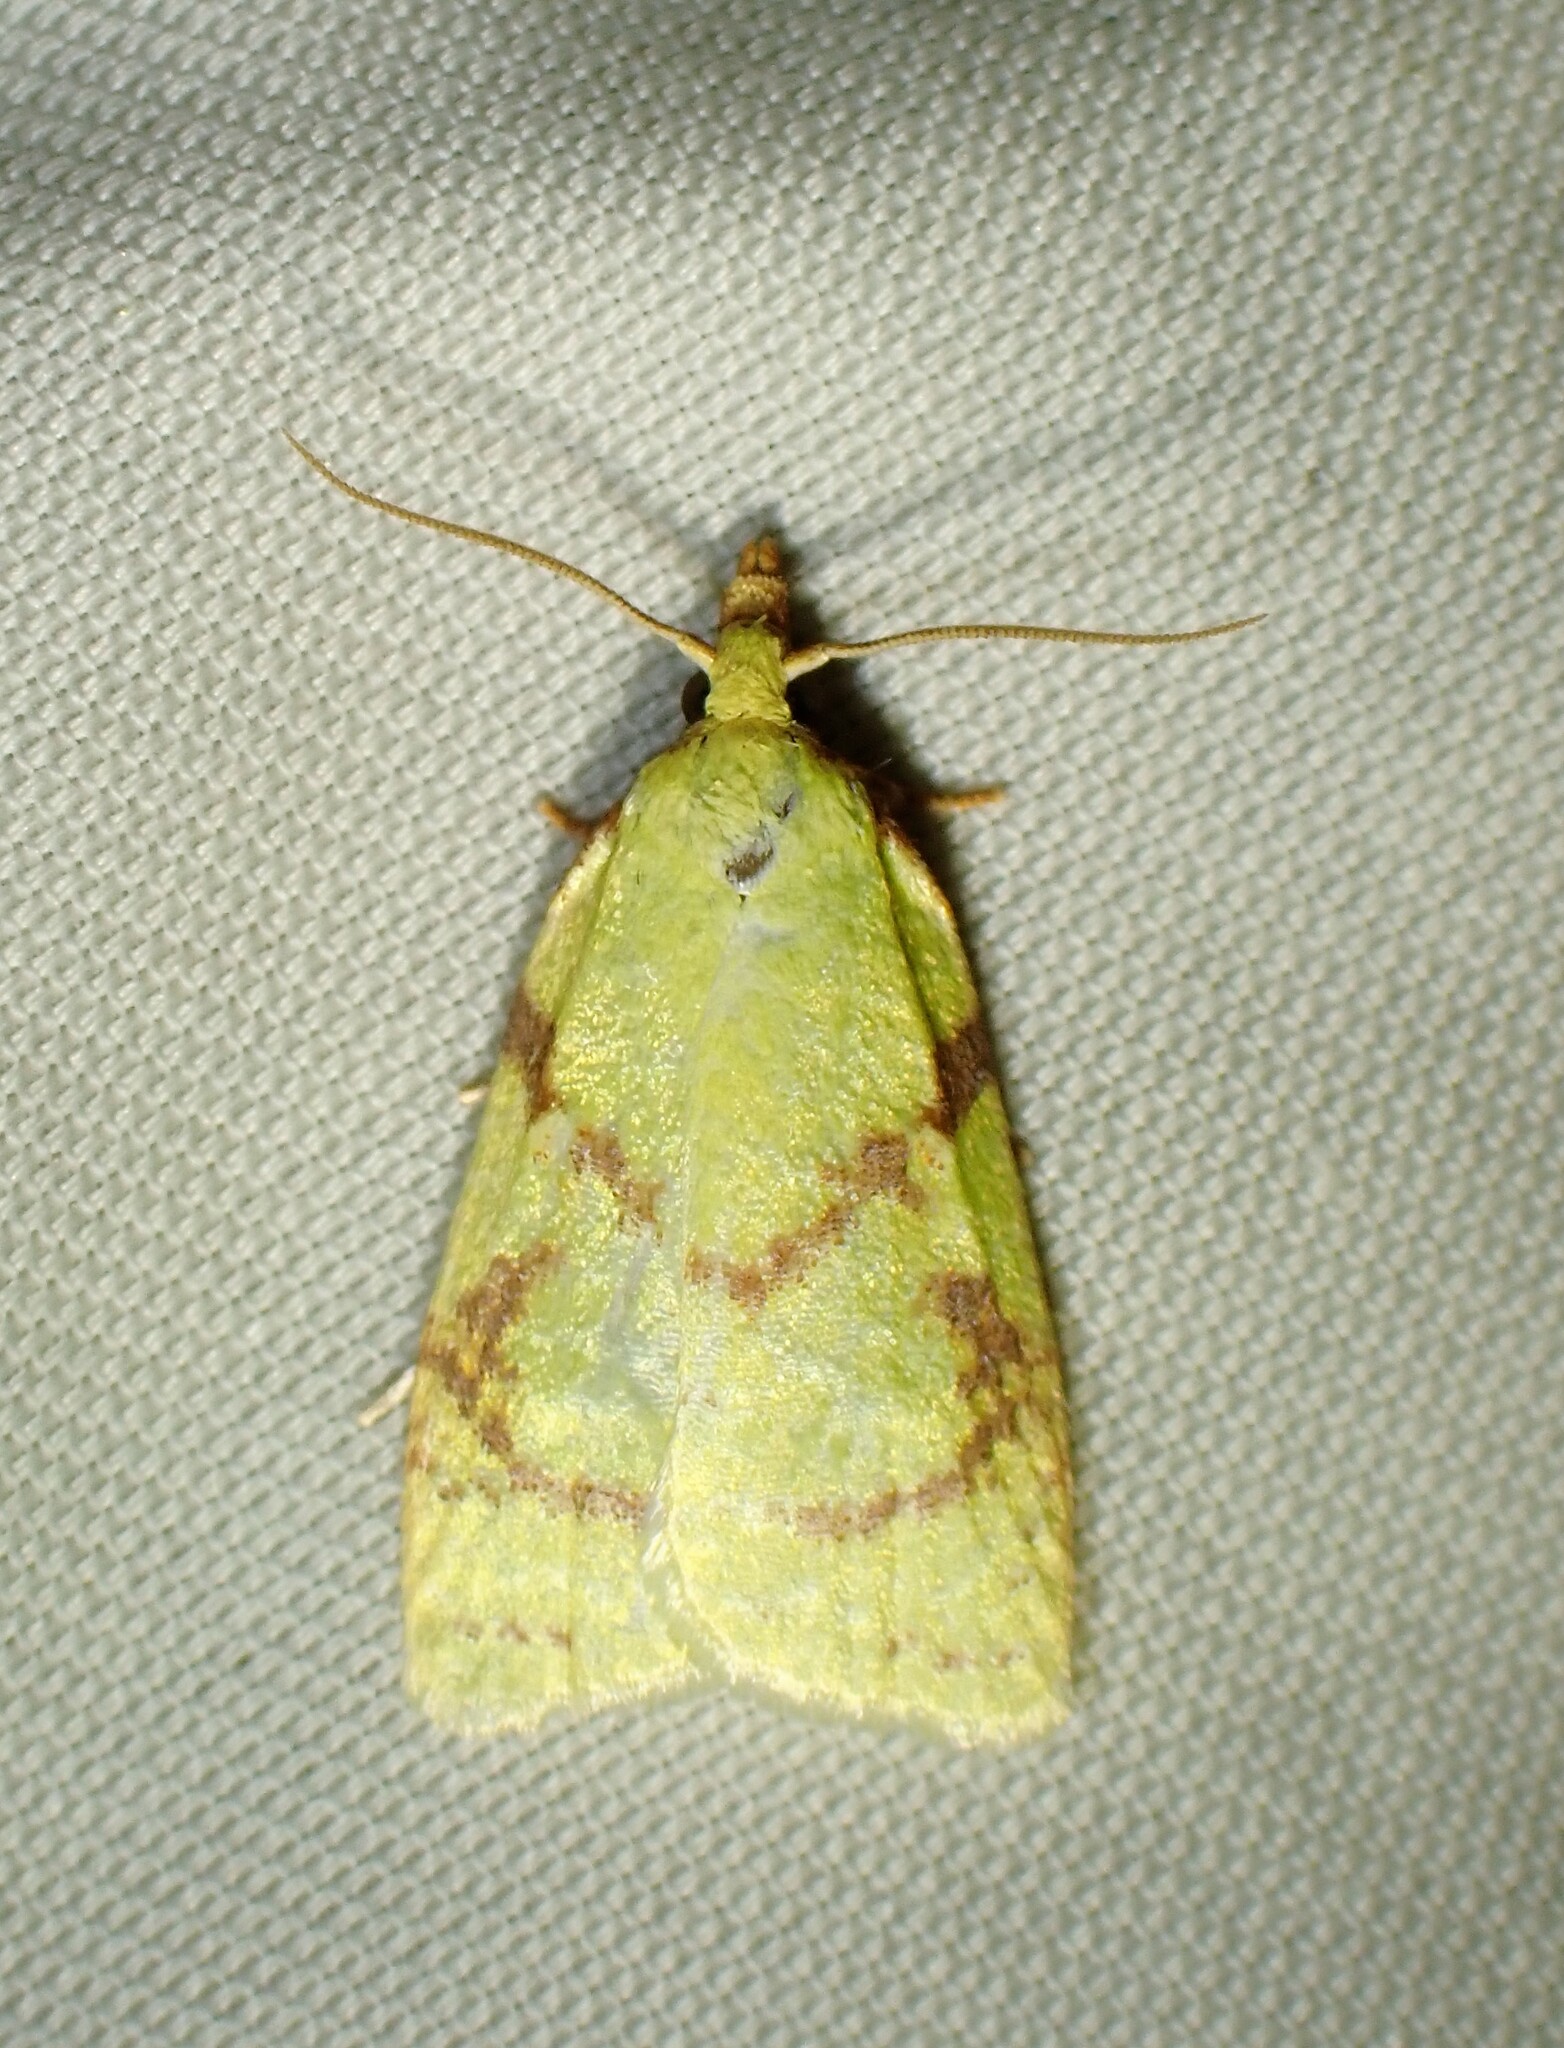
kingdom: Animalia
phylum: Arthropoda
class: Insecta
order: Lepidoptera
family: Tortricidae
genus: Cenopis
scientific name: Cenopis pettitana
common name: Maple-basswood leafroller moth
